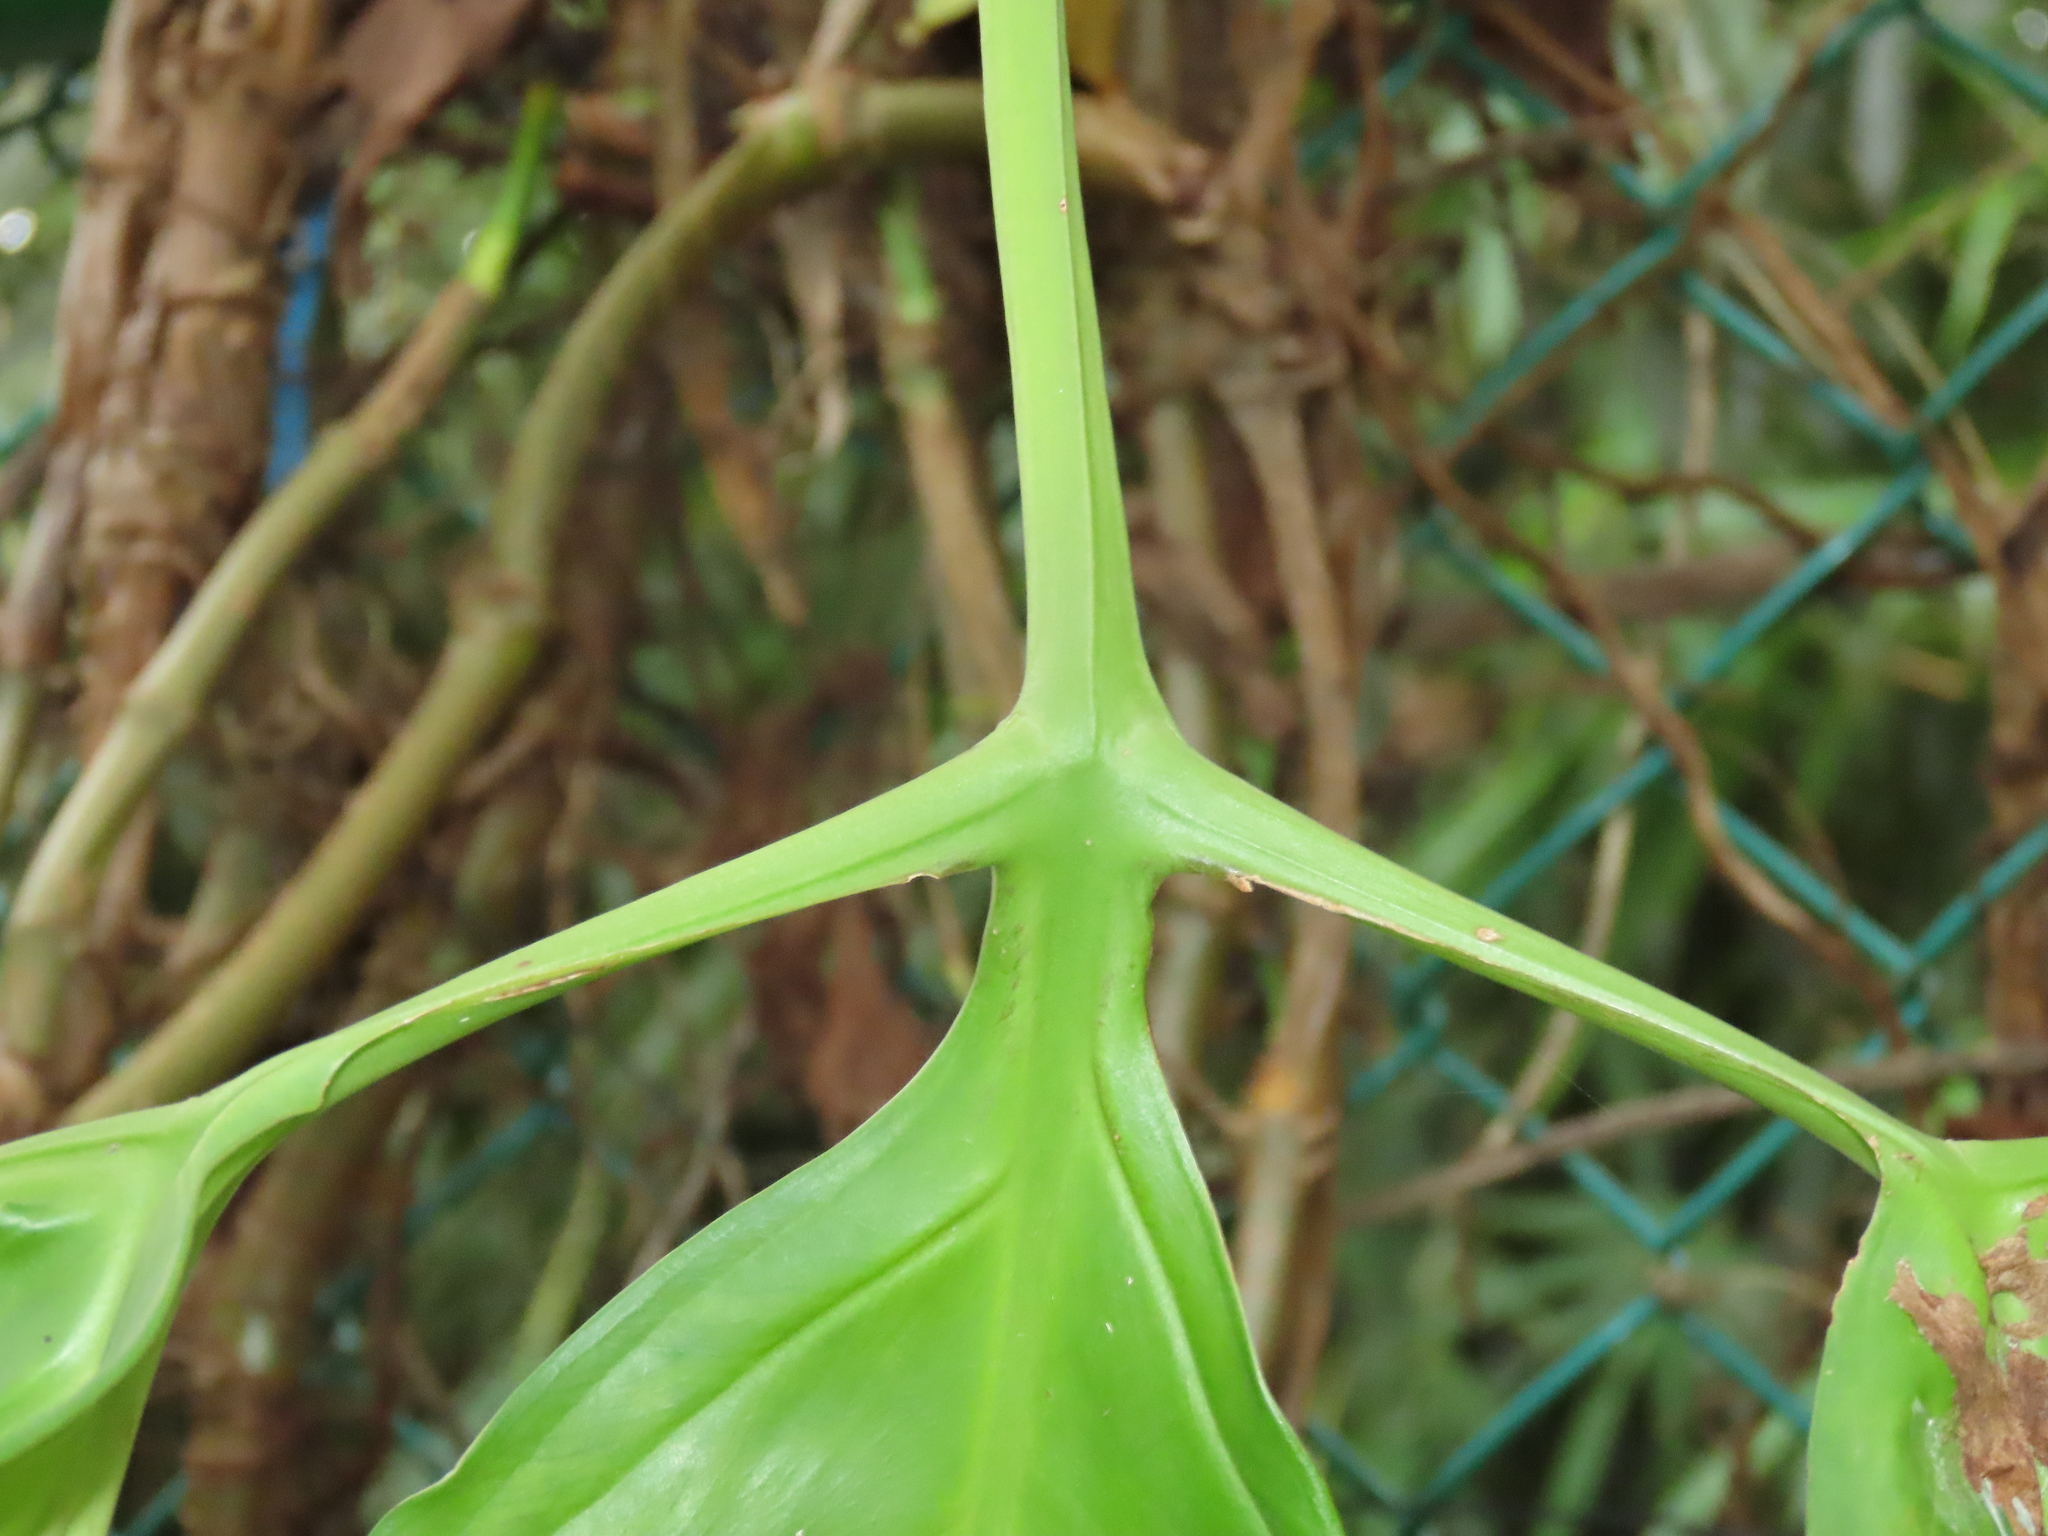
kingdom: Plantae
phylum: Tracheophyta
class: Liliopsida
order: Alismatales
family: Araceae
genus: Syngonium
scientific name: Syngonium angustatum
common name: Fivefingers
